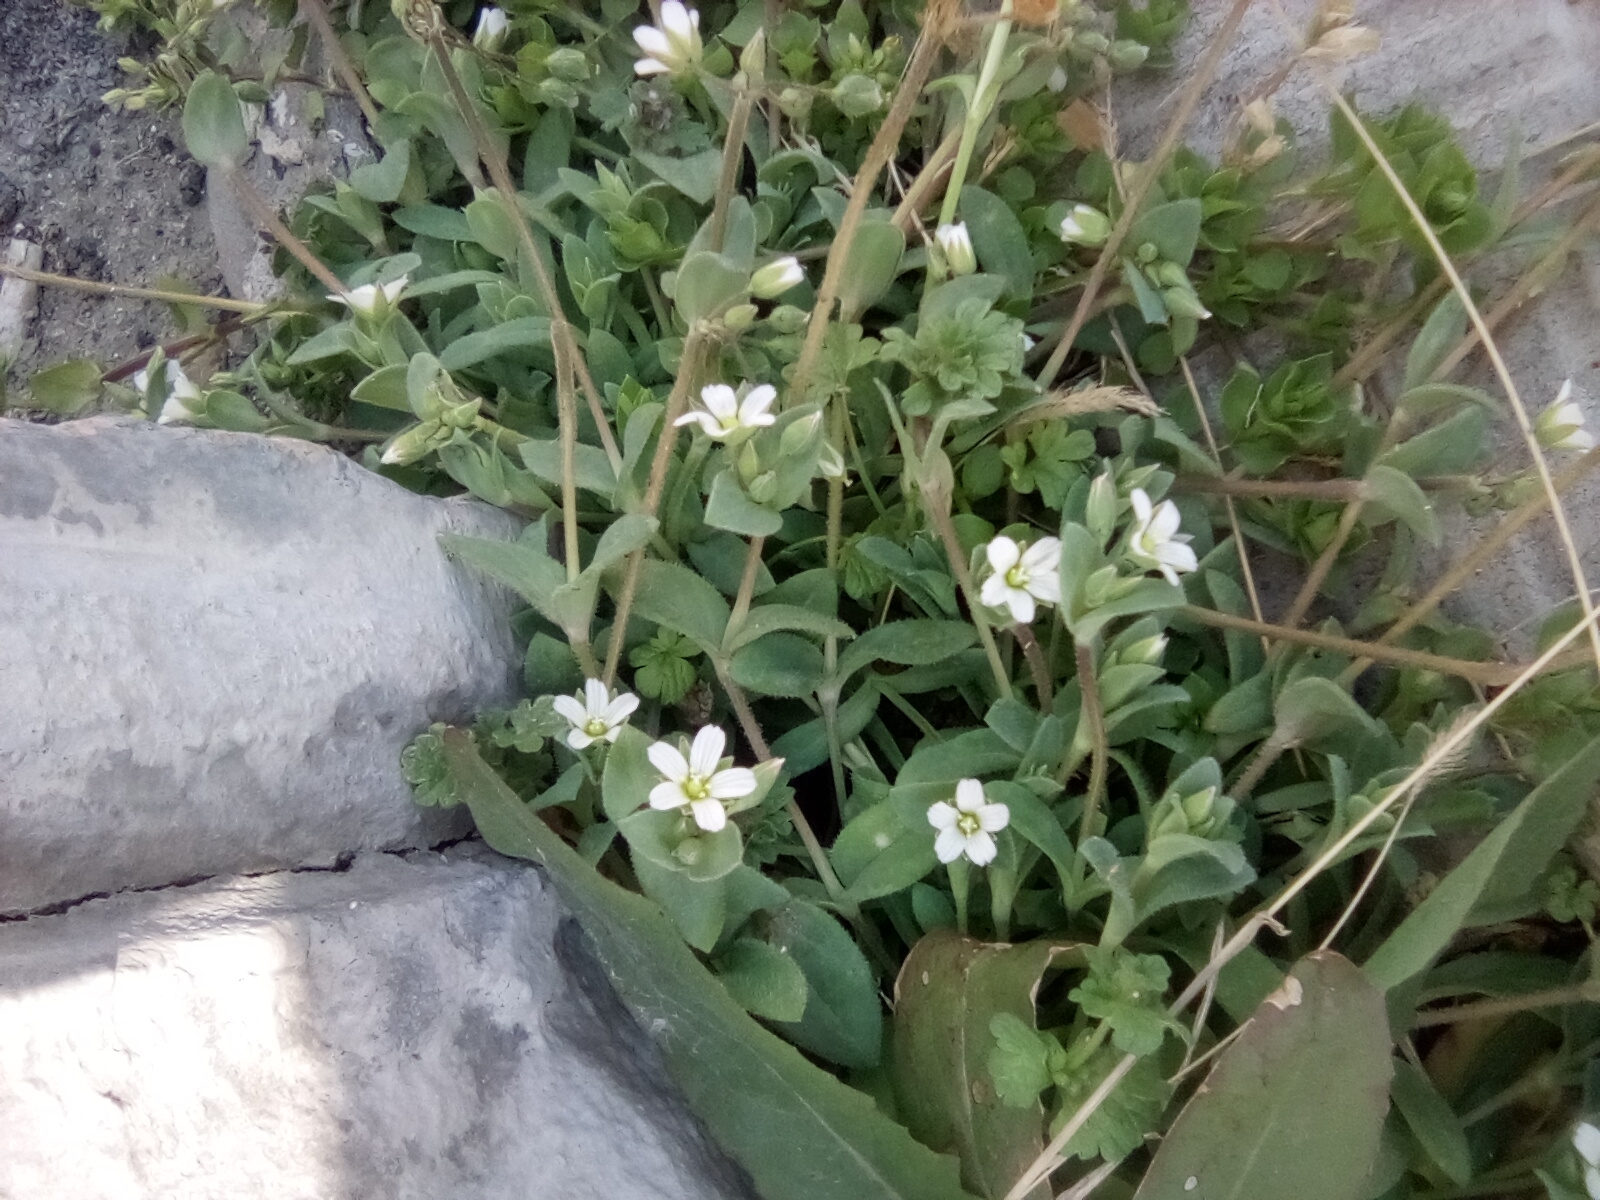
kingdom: Plantae
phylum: Tracheophyta
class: Magnoliopsida
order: Caryophyllales
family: Caryophyllaceae
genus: Holosteum
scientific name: Holosteum umbellatum
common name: Jagged chickweed
